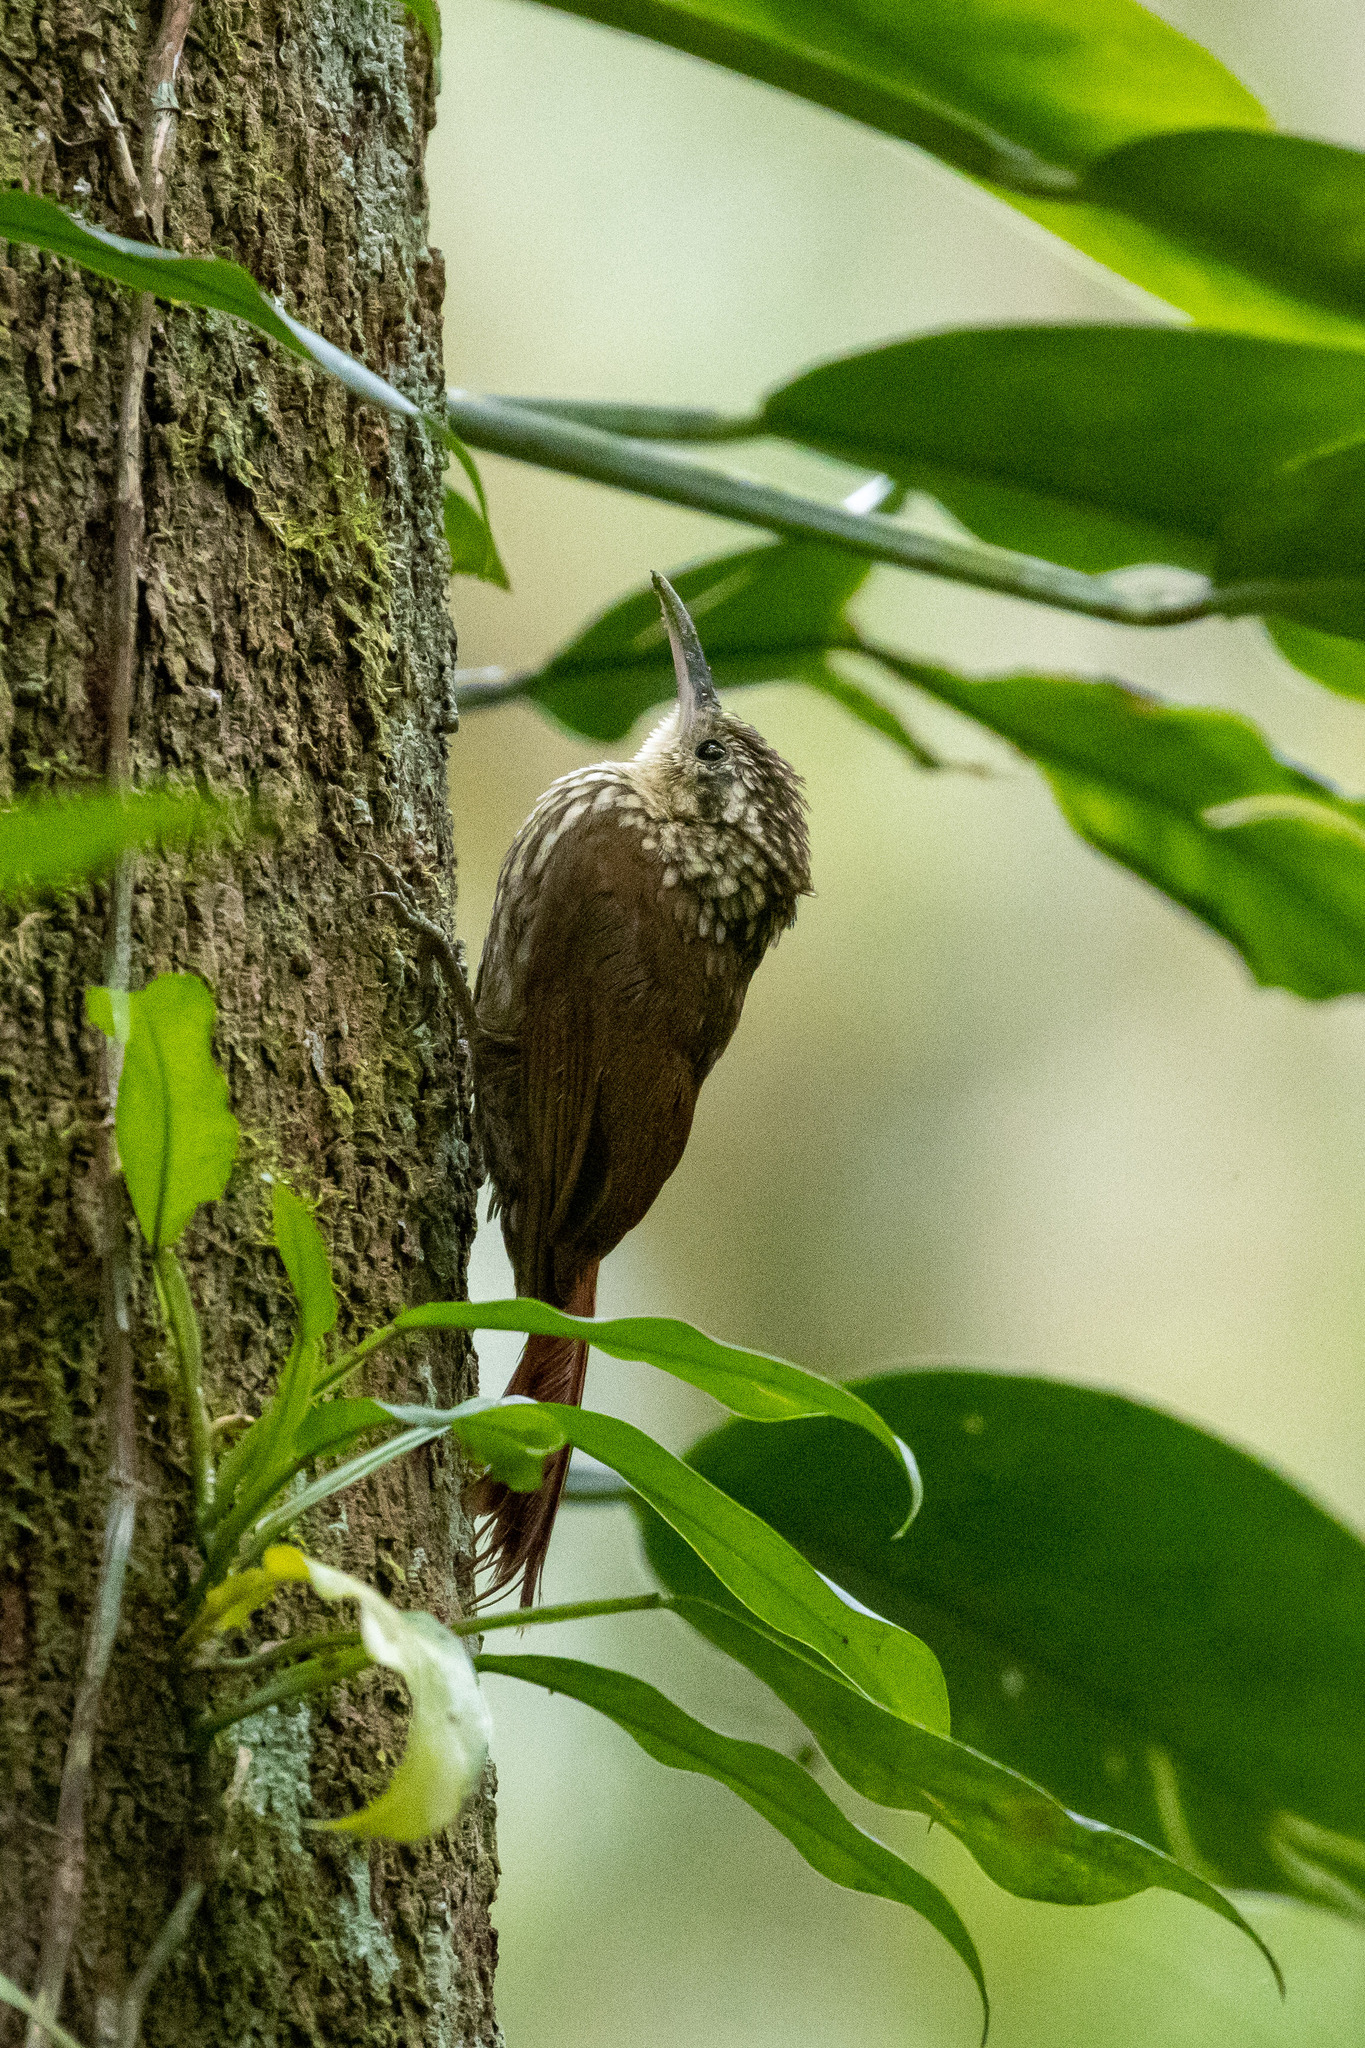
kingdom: Animalia
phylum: Chordata
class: Aves
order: Passeriformes
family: Furnariidae
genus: Xiphorhynchus
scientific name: Xiphorhynchus fuscus
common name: Lesser woodcreeper
